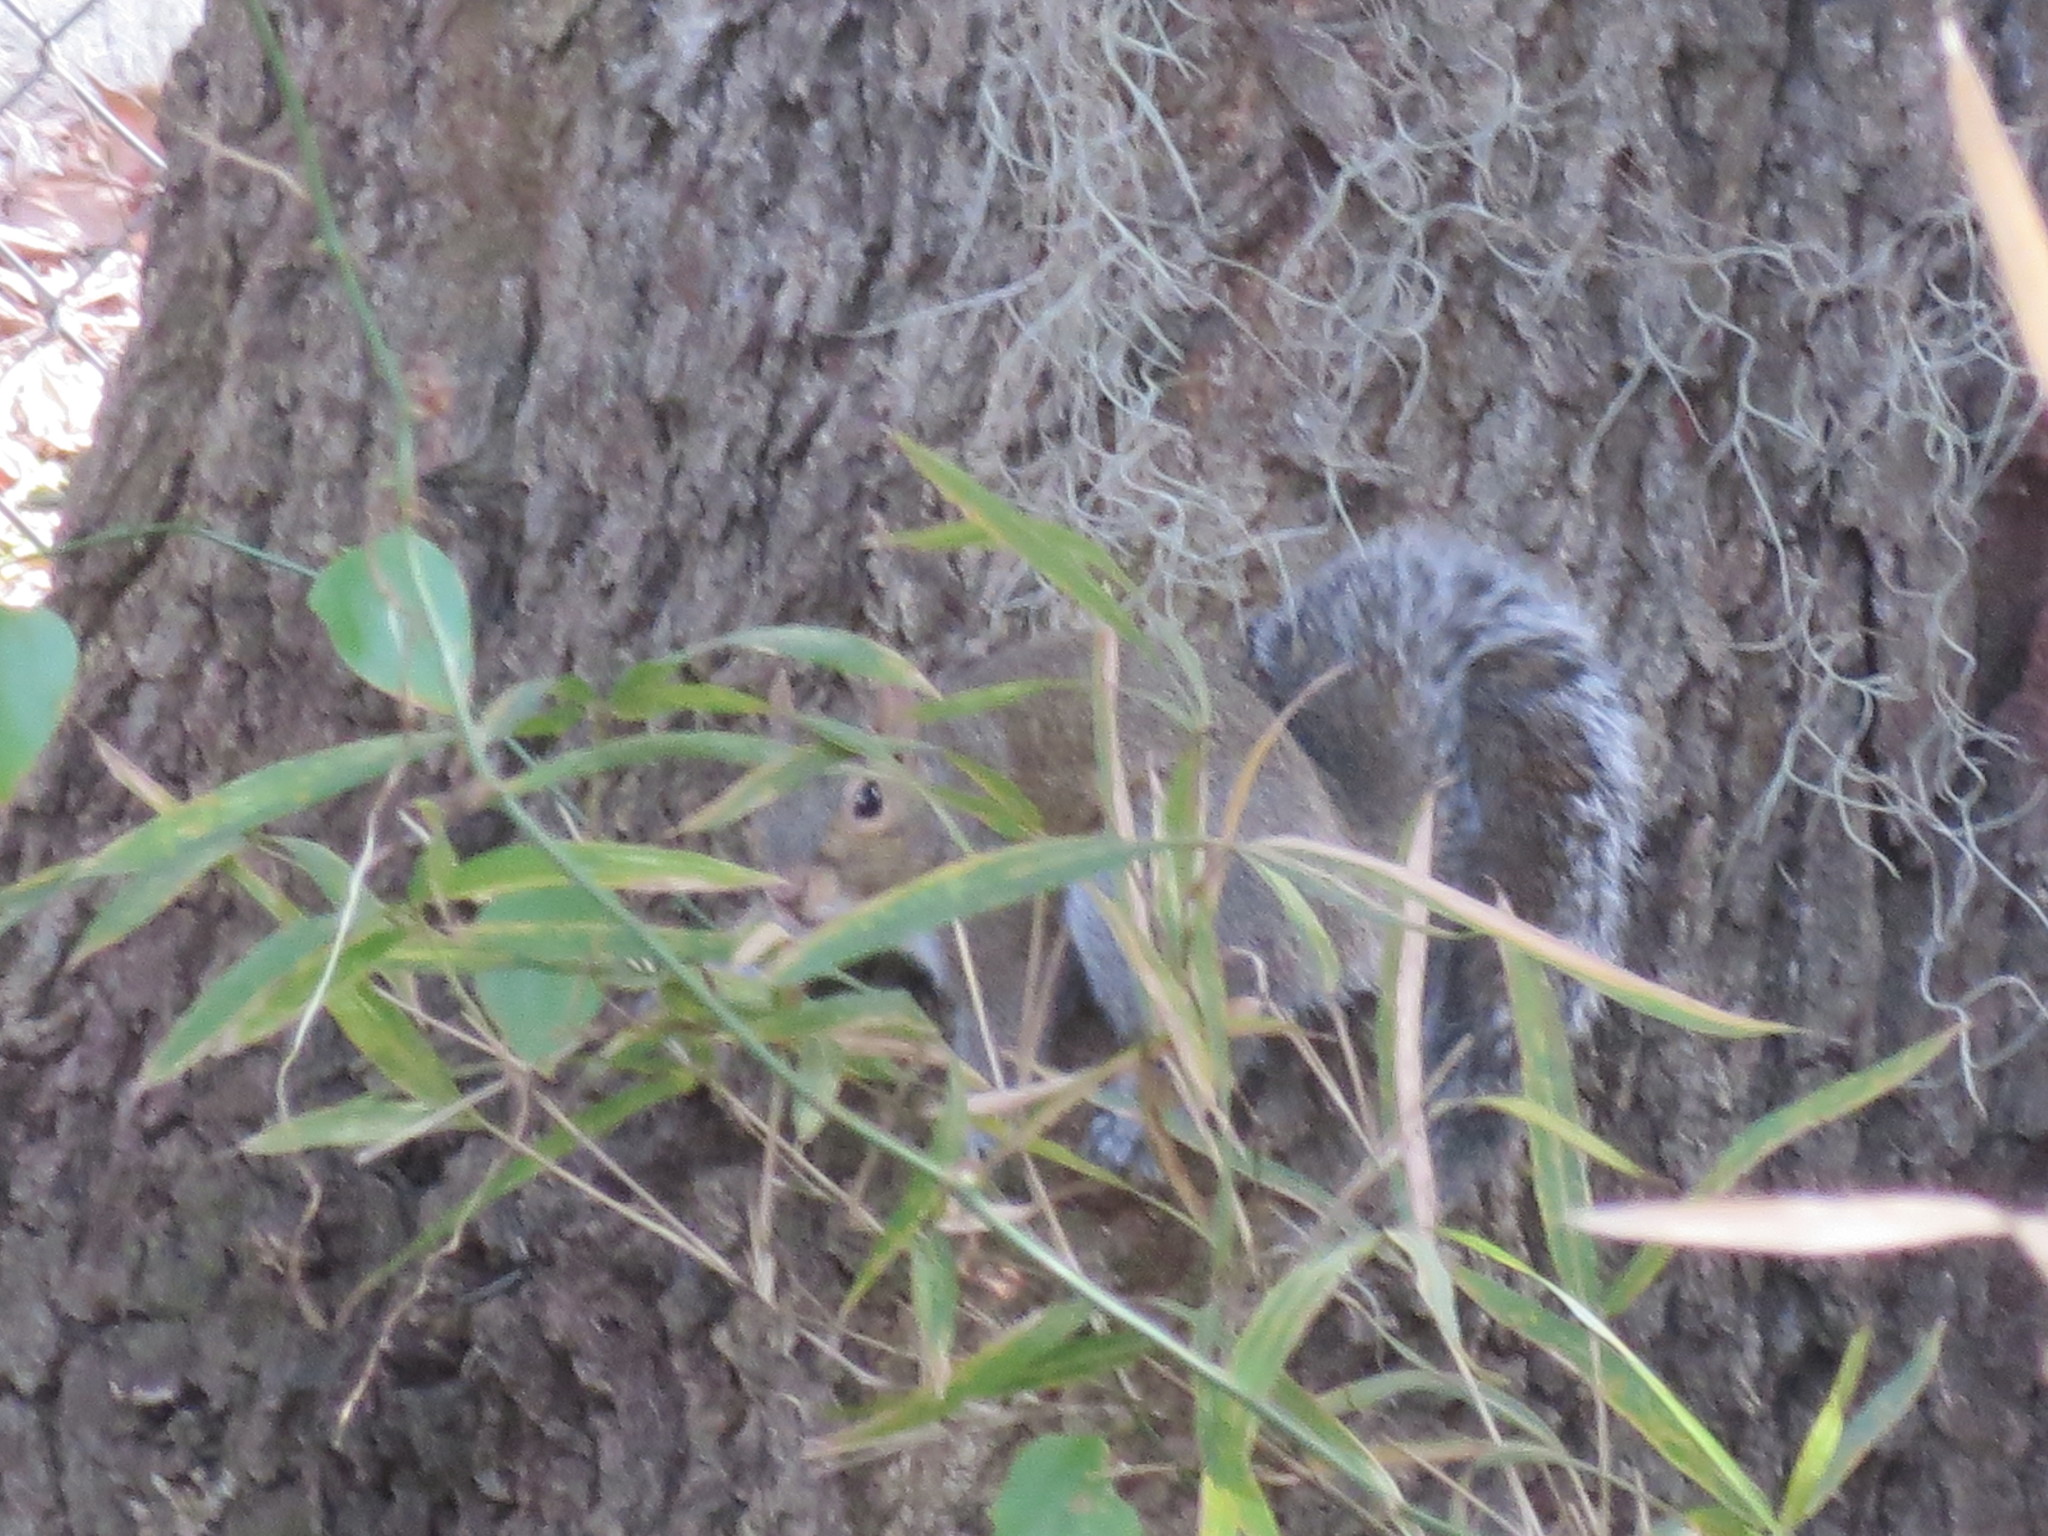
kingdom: Animalia
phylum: Chordata
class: Mammalia
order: Rodentia
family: Sciuridae
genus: Sciurus
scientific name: Sciurus carolinensis
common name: Eastern gray squirrel
